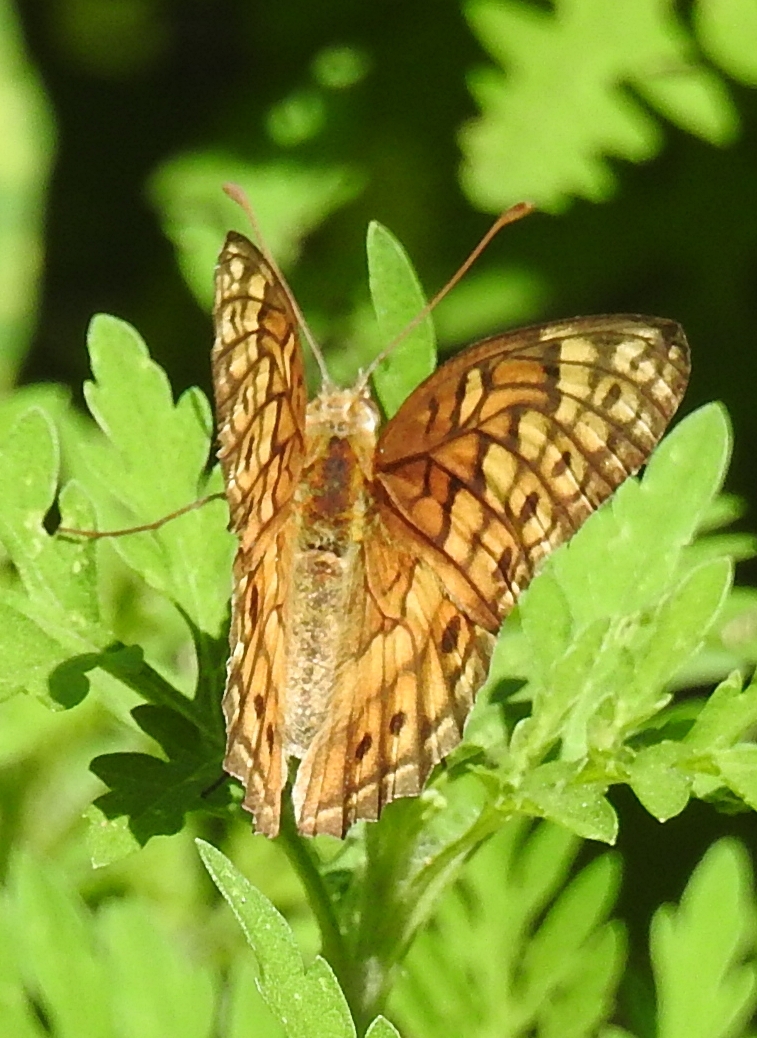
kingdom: Animalia
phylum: Arthropoda
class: Insecta
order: Lepidoptera
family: Nymphalidae
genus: Euptoieta
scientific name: Euptoieta claudia
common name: Variegated fritillary
